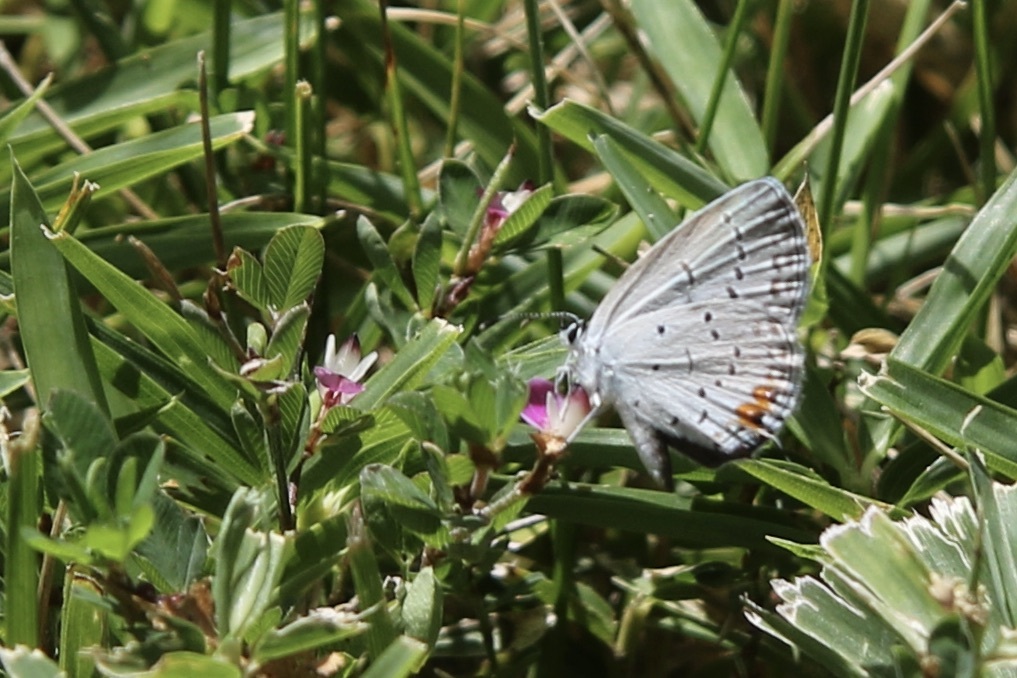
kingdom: Animalia
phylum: Arthropoda
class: Insecta
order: Lepidoptera
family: Lycaenidae
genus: Elkalyce
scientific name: Elkalyce comyntas
